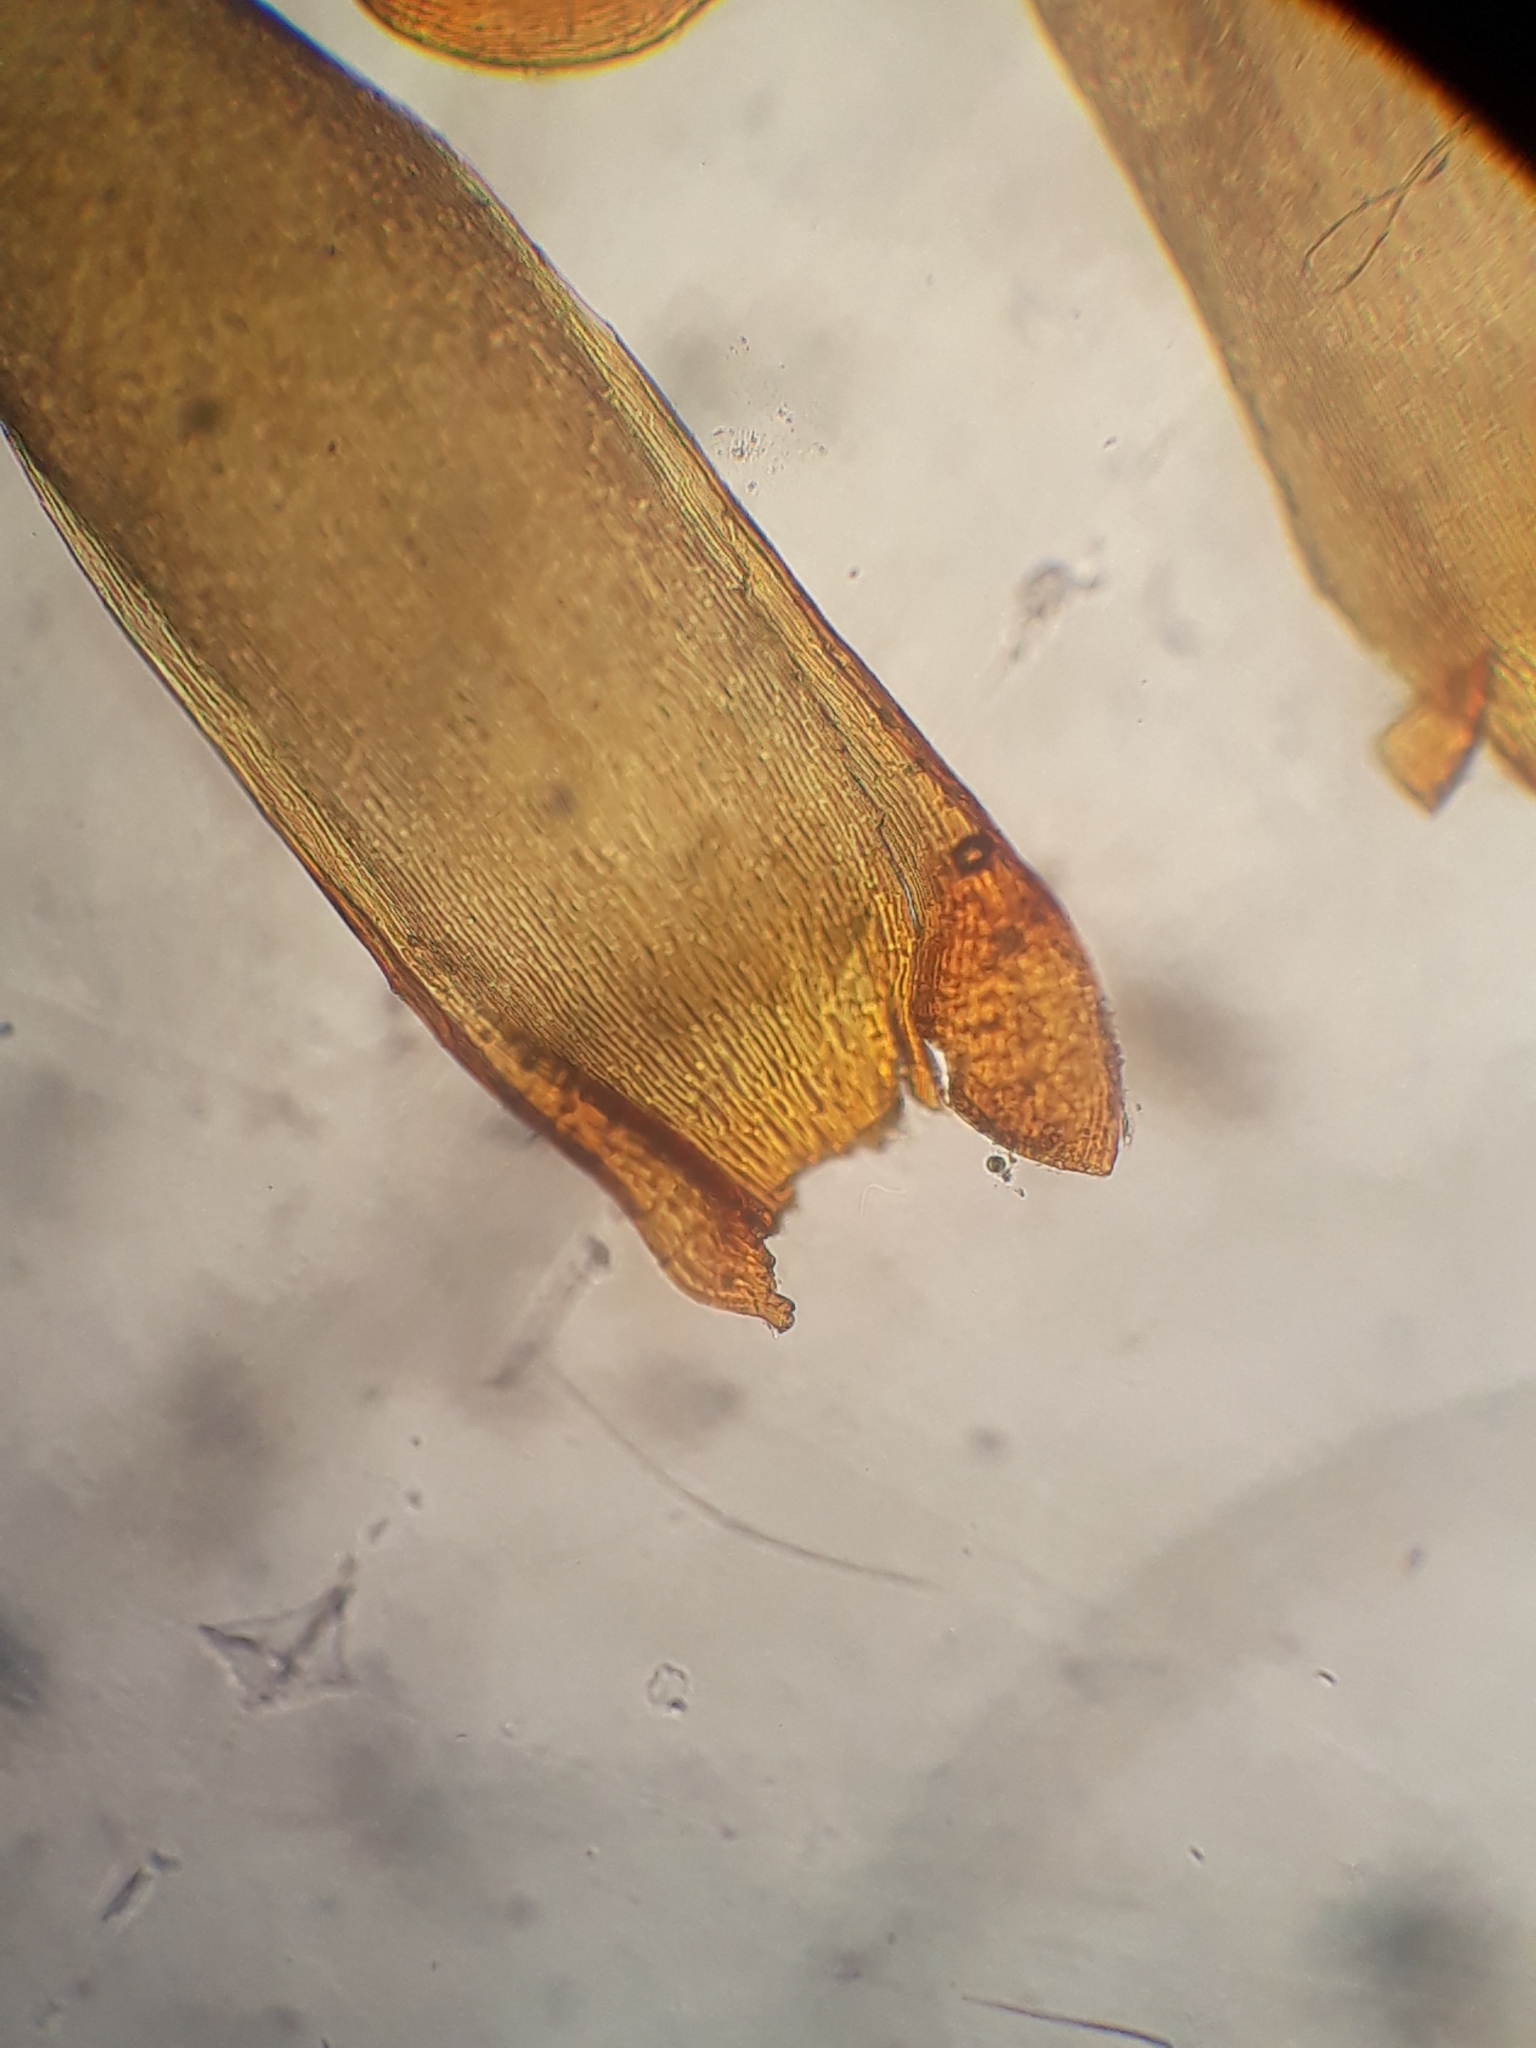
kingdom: Plantae
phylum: Bryophyta
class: Bryopsida
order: Hedwigiales
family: Hedwigiaceae
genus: Rhacocarpus
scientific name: Rhacocarpus purpurascens
